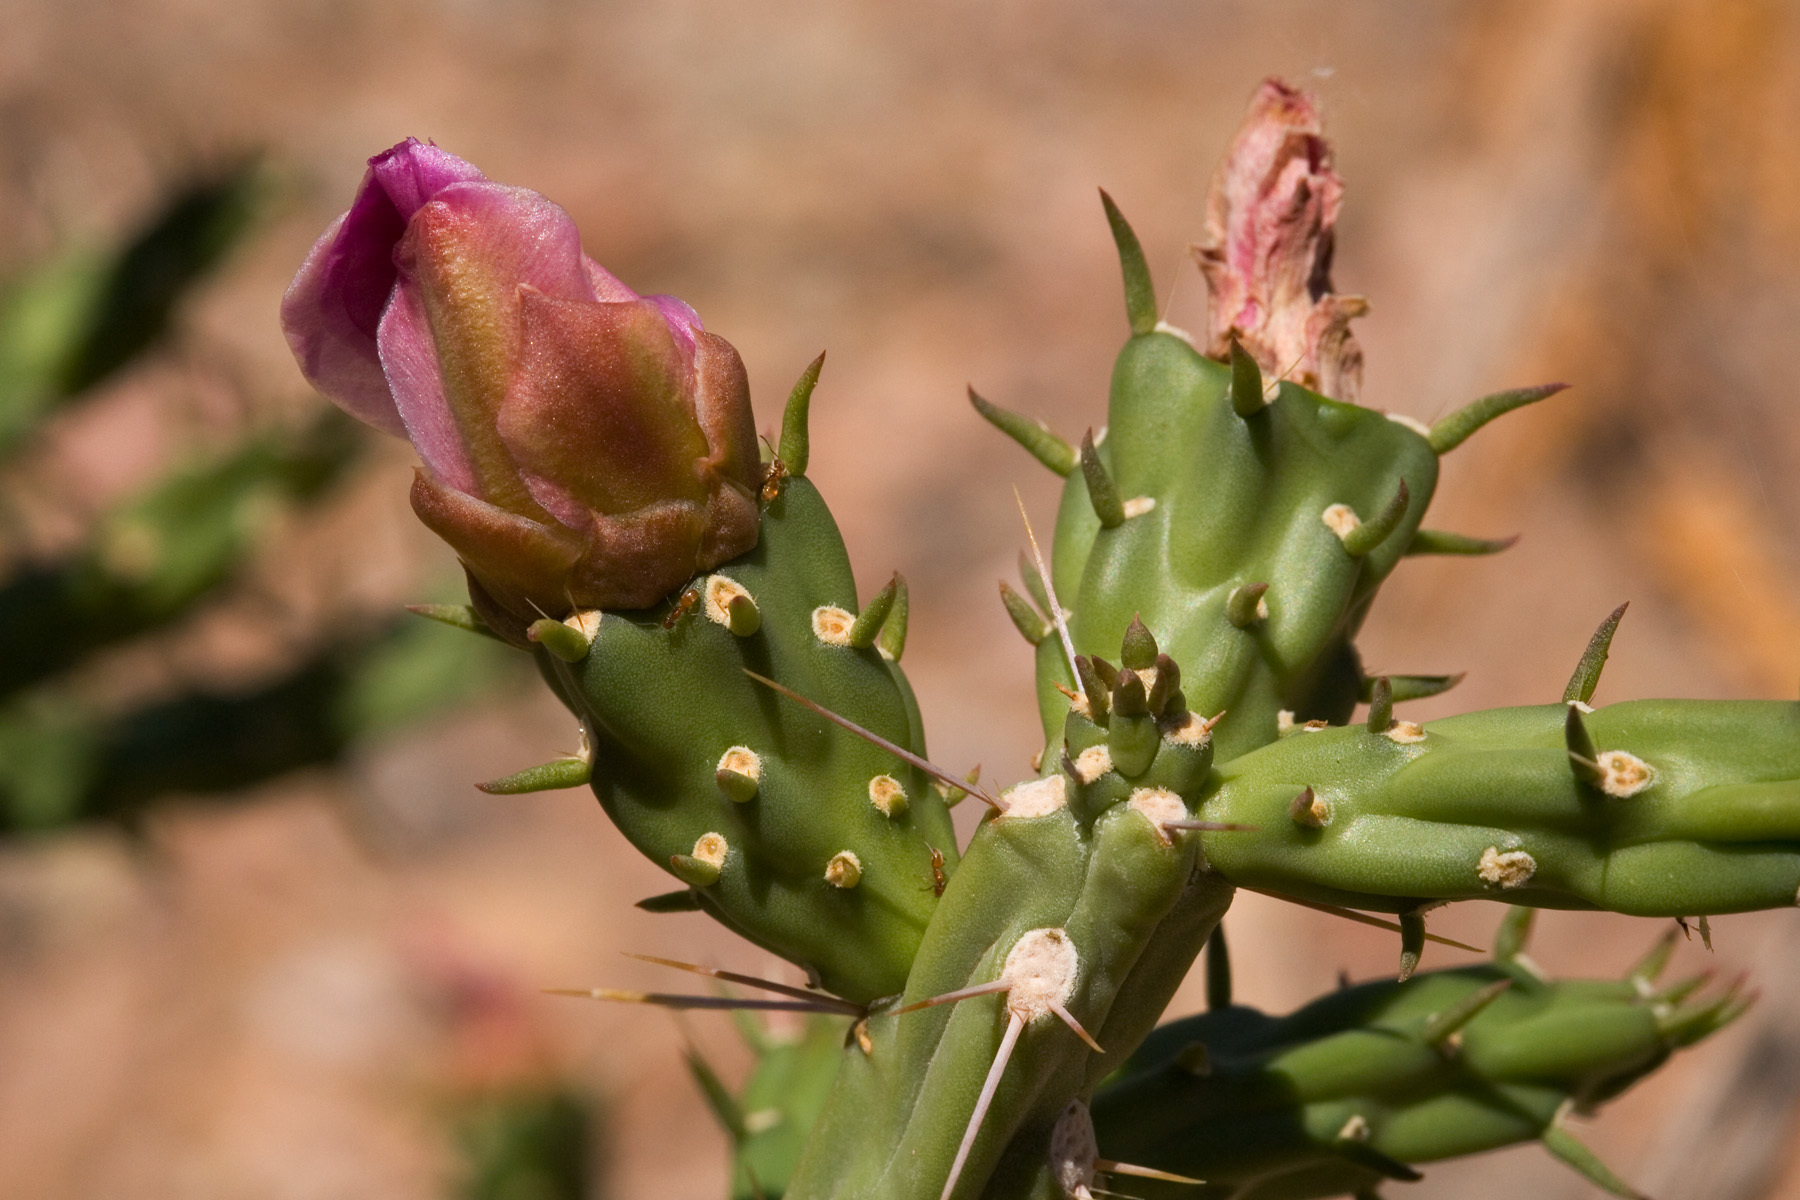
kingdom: Plantae
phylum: Tracheophyta
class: Magnoliopsida
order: Caryophyllales
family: Cactaceae
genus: Cylindropuntia
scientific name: Cylindropuntia kleiniae
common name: Klein's cholla
